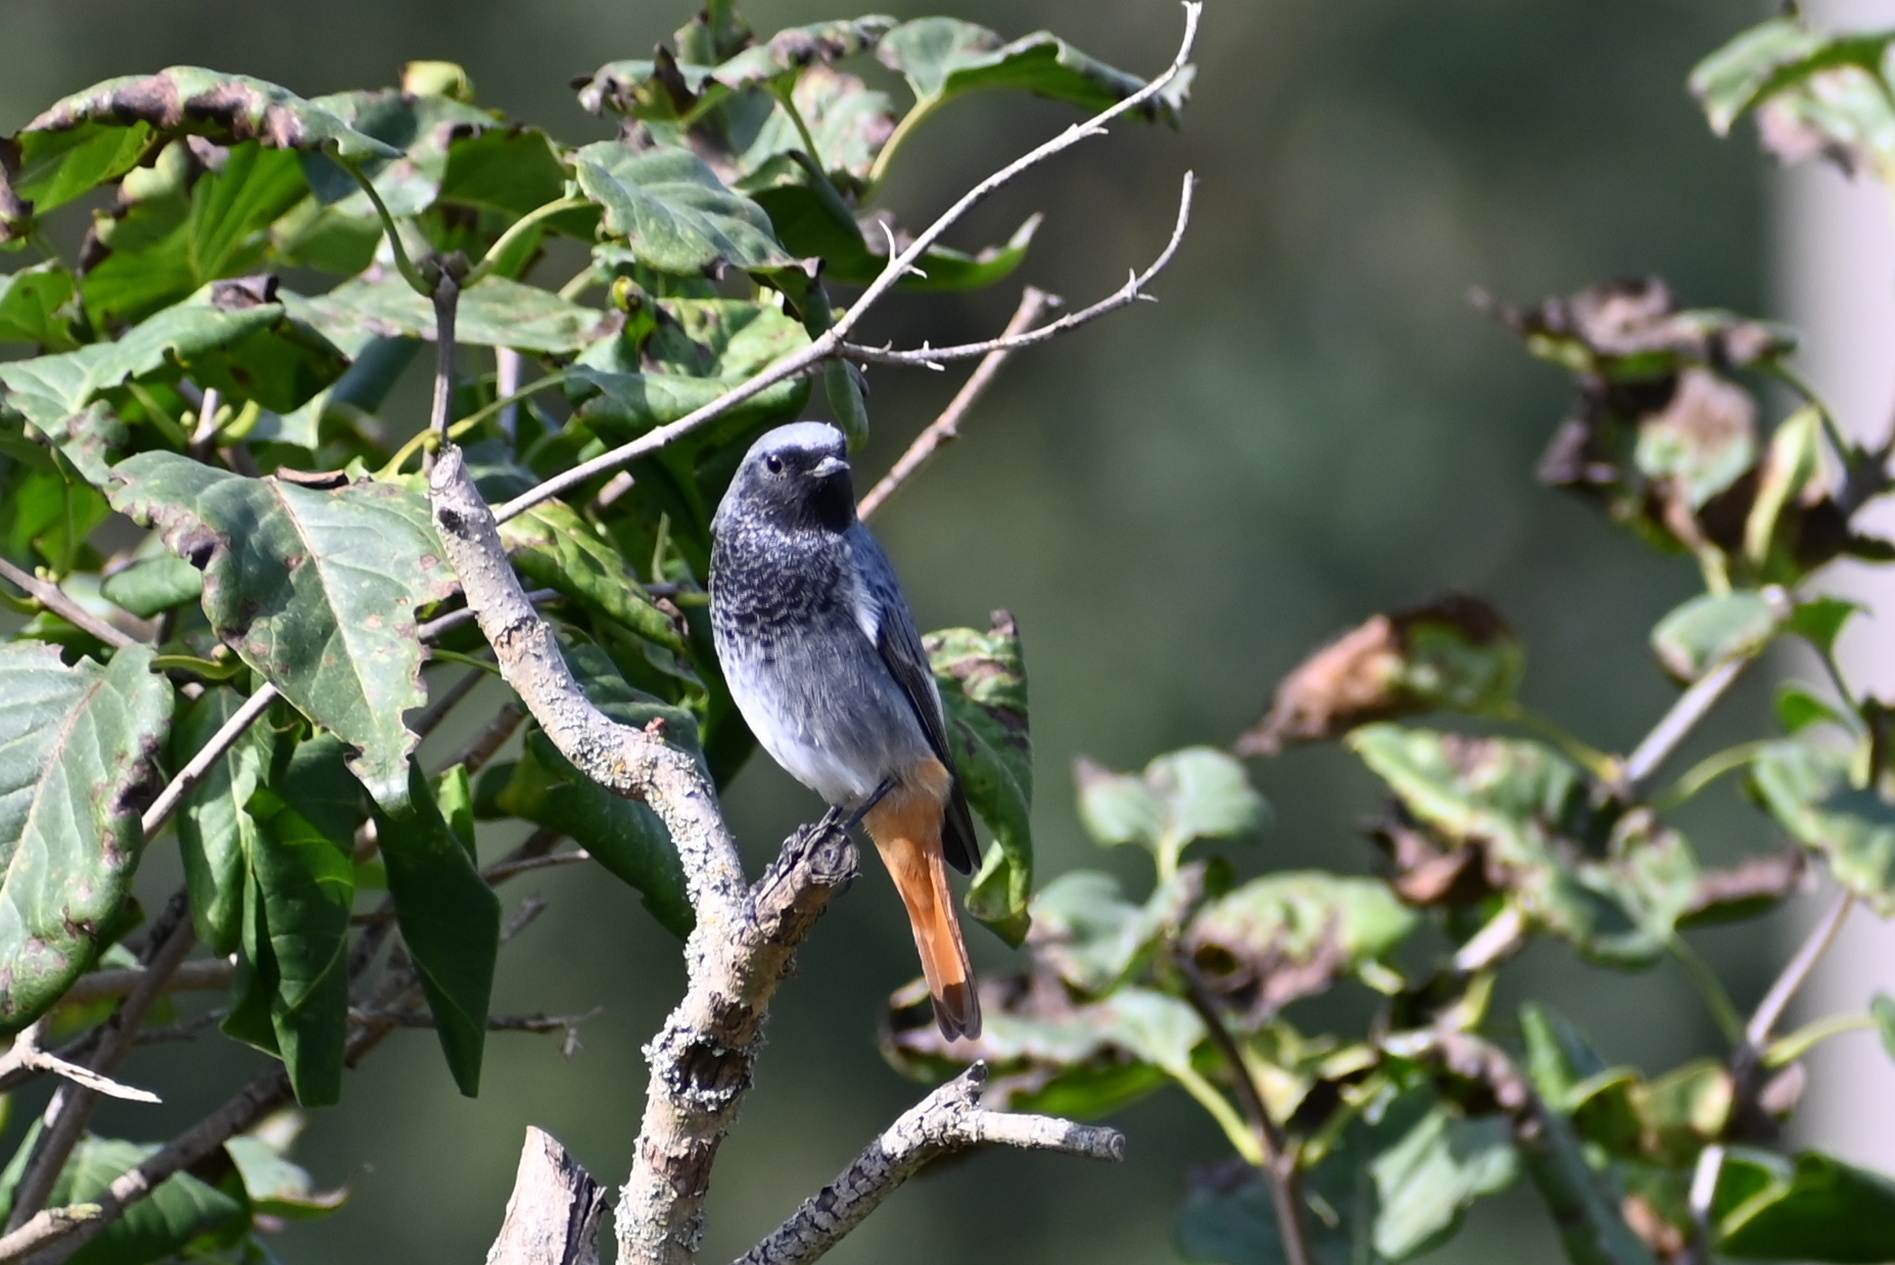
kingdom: Animalia
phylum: Chordata
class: Aves
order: Passeriformes
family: Muscicapidae
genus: Phoenicurus
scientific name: Phoenicurus ochruros
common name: Black redstart
